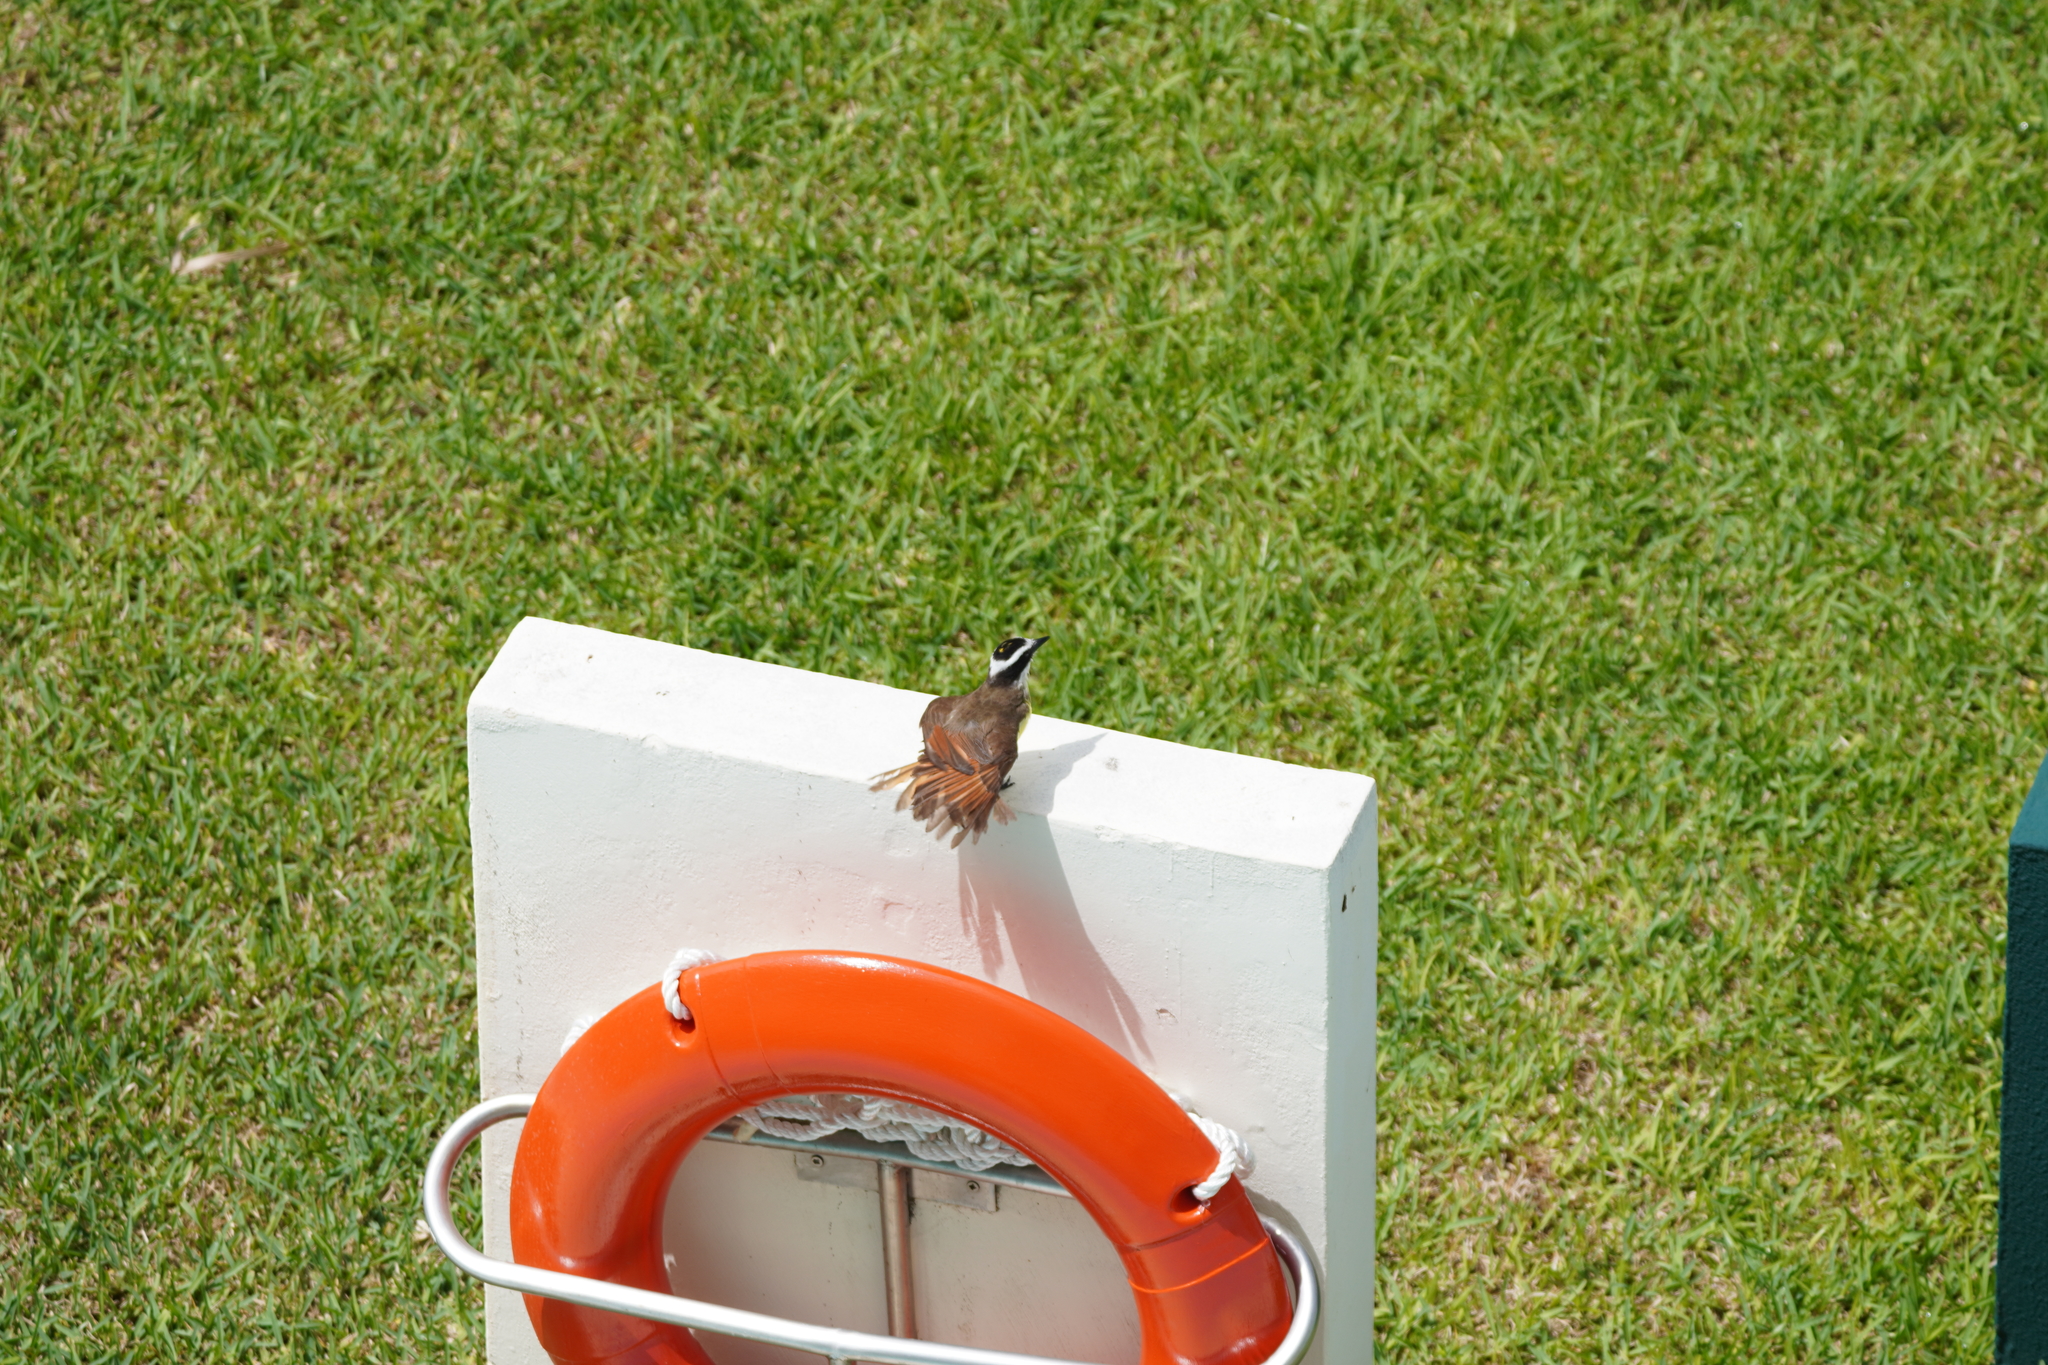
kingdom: Animalia
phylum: Chordata
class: Aves
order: Passeriformes
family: Tyrannidae
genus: Pitangus
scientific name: Pitangus sulphuratus
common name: Great kiskadee
